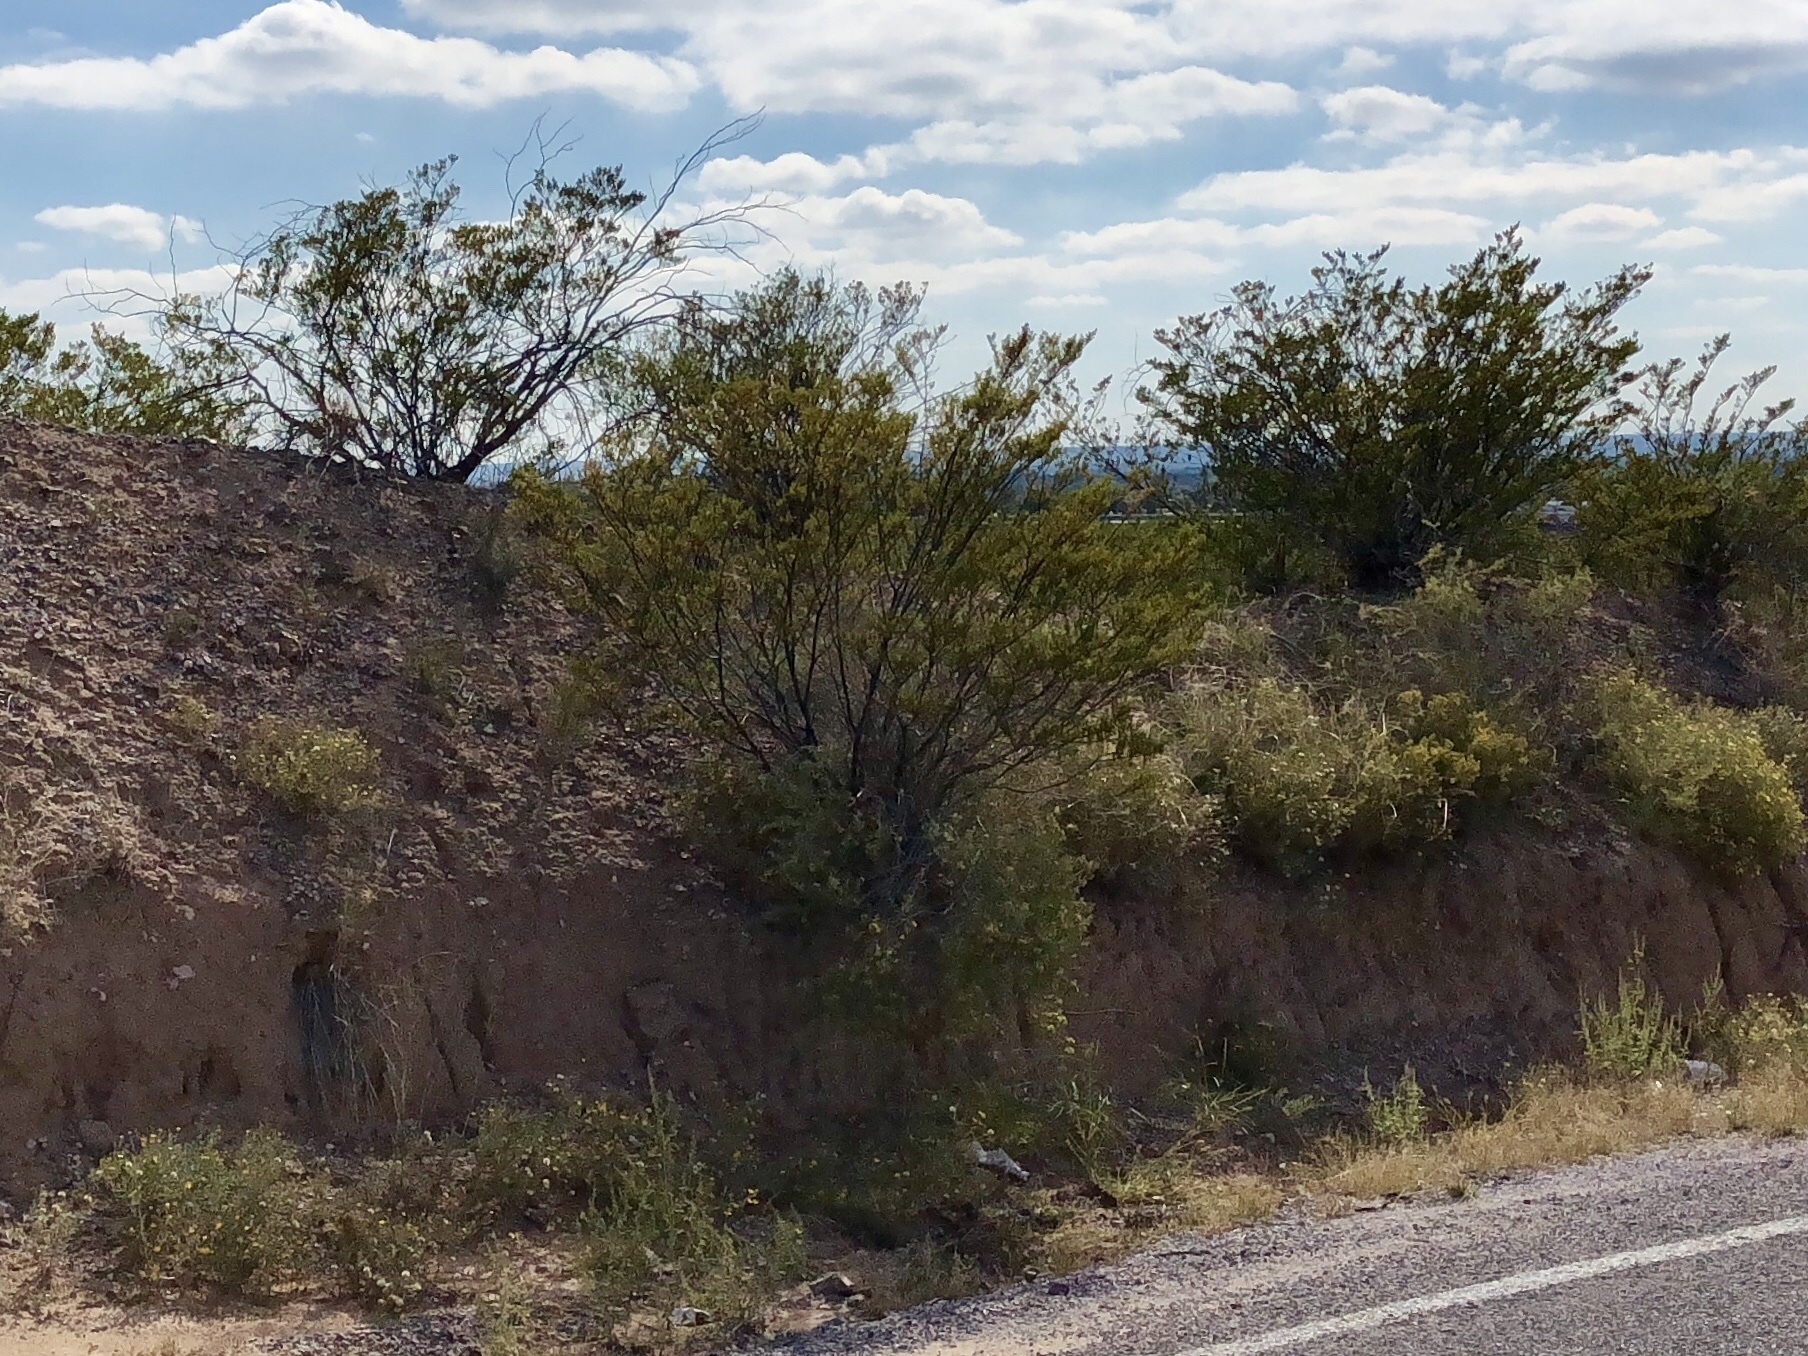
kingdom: Plantae
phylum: Tracheophyta
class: Magnoliopsida
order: Zygophyllales
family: Zygophyllaceae
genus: Larrea
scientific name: Larrea tridentata
